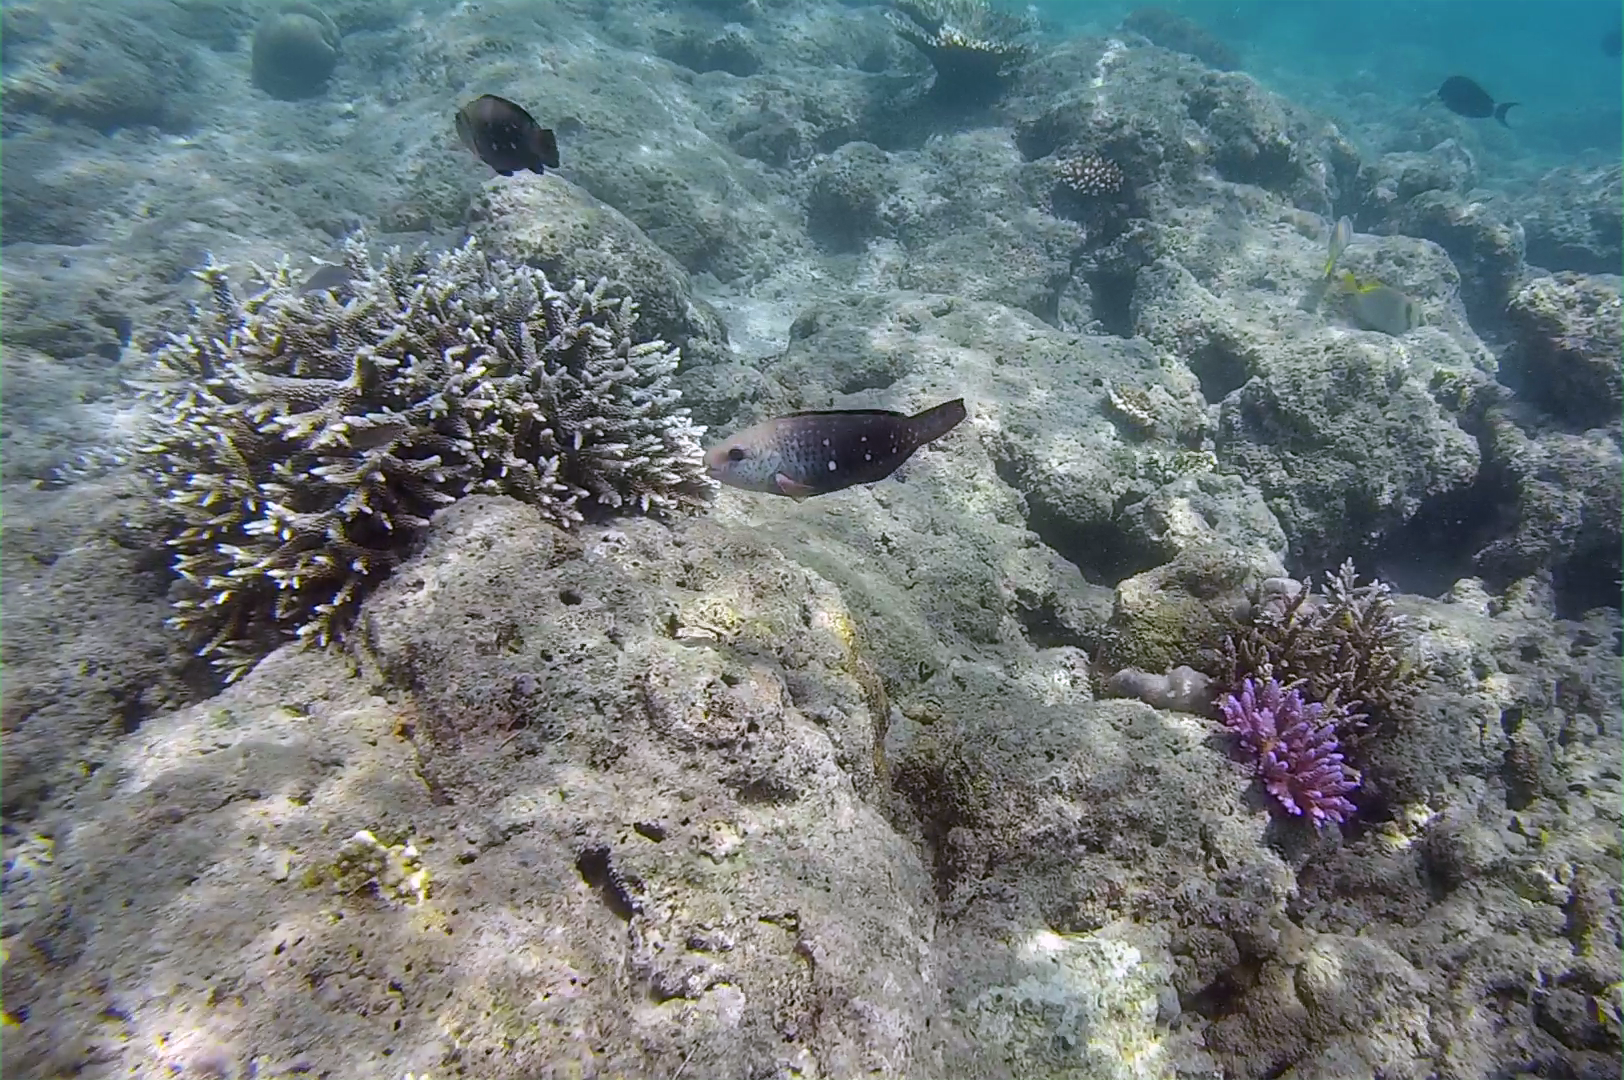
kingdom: Animalia
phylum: Chordata
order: Perciformes
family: Scaridae
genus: Chlorurus
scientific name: Chlorurus sordidus
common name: Bullethead parrotfish
